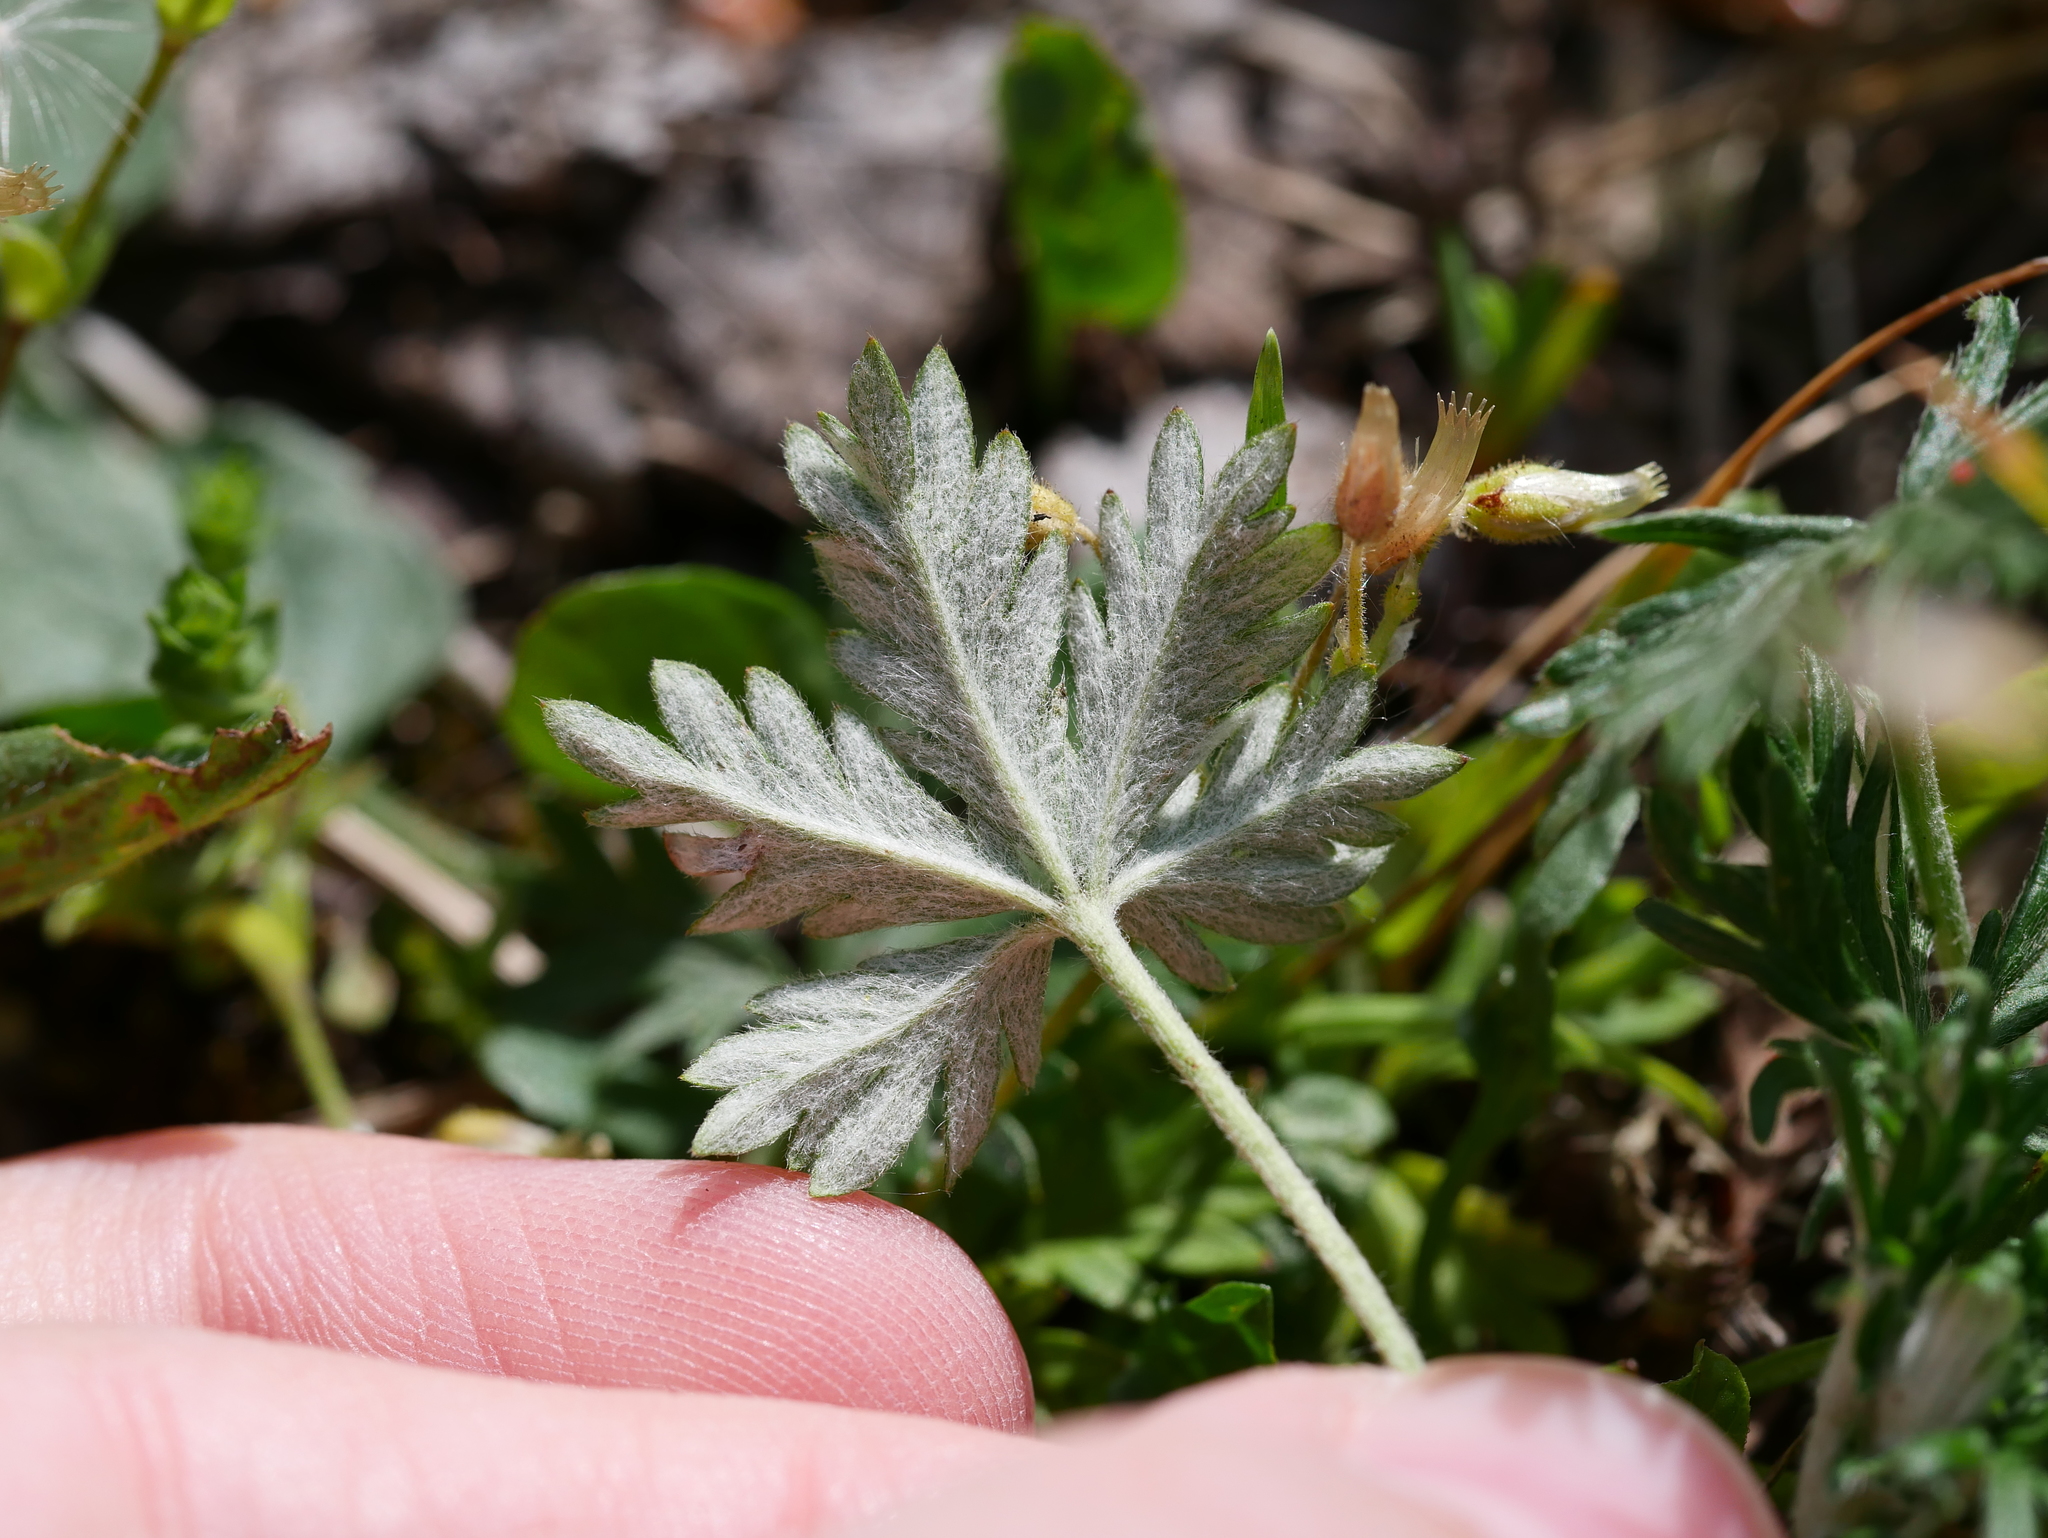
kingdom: Plantae
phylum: Tracheophyta
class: Magnoliopsida
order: Rosales
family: Rosaceae
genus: Potentilla
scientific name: Potentilla argentea
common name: Hoary cinquefoil
